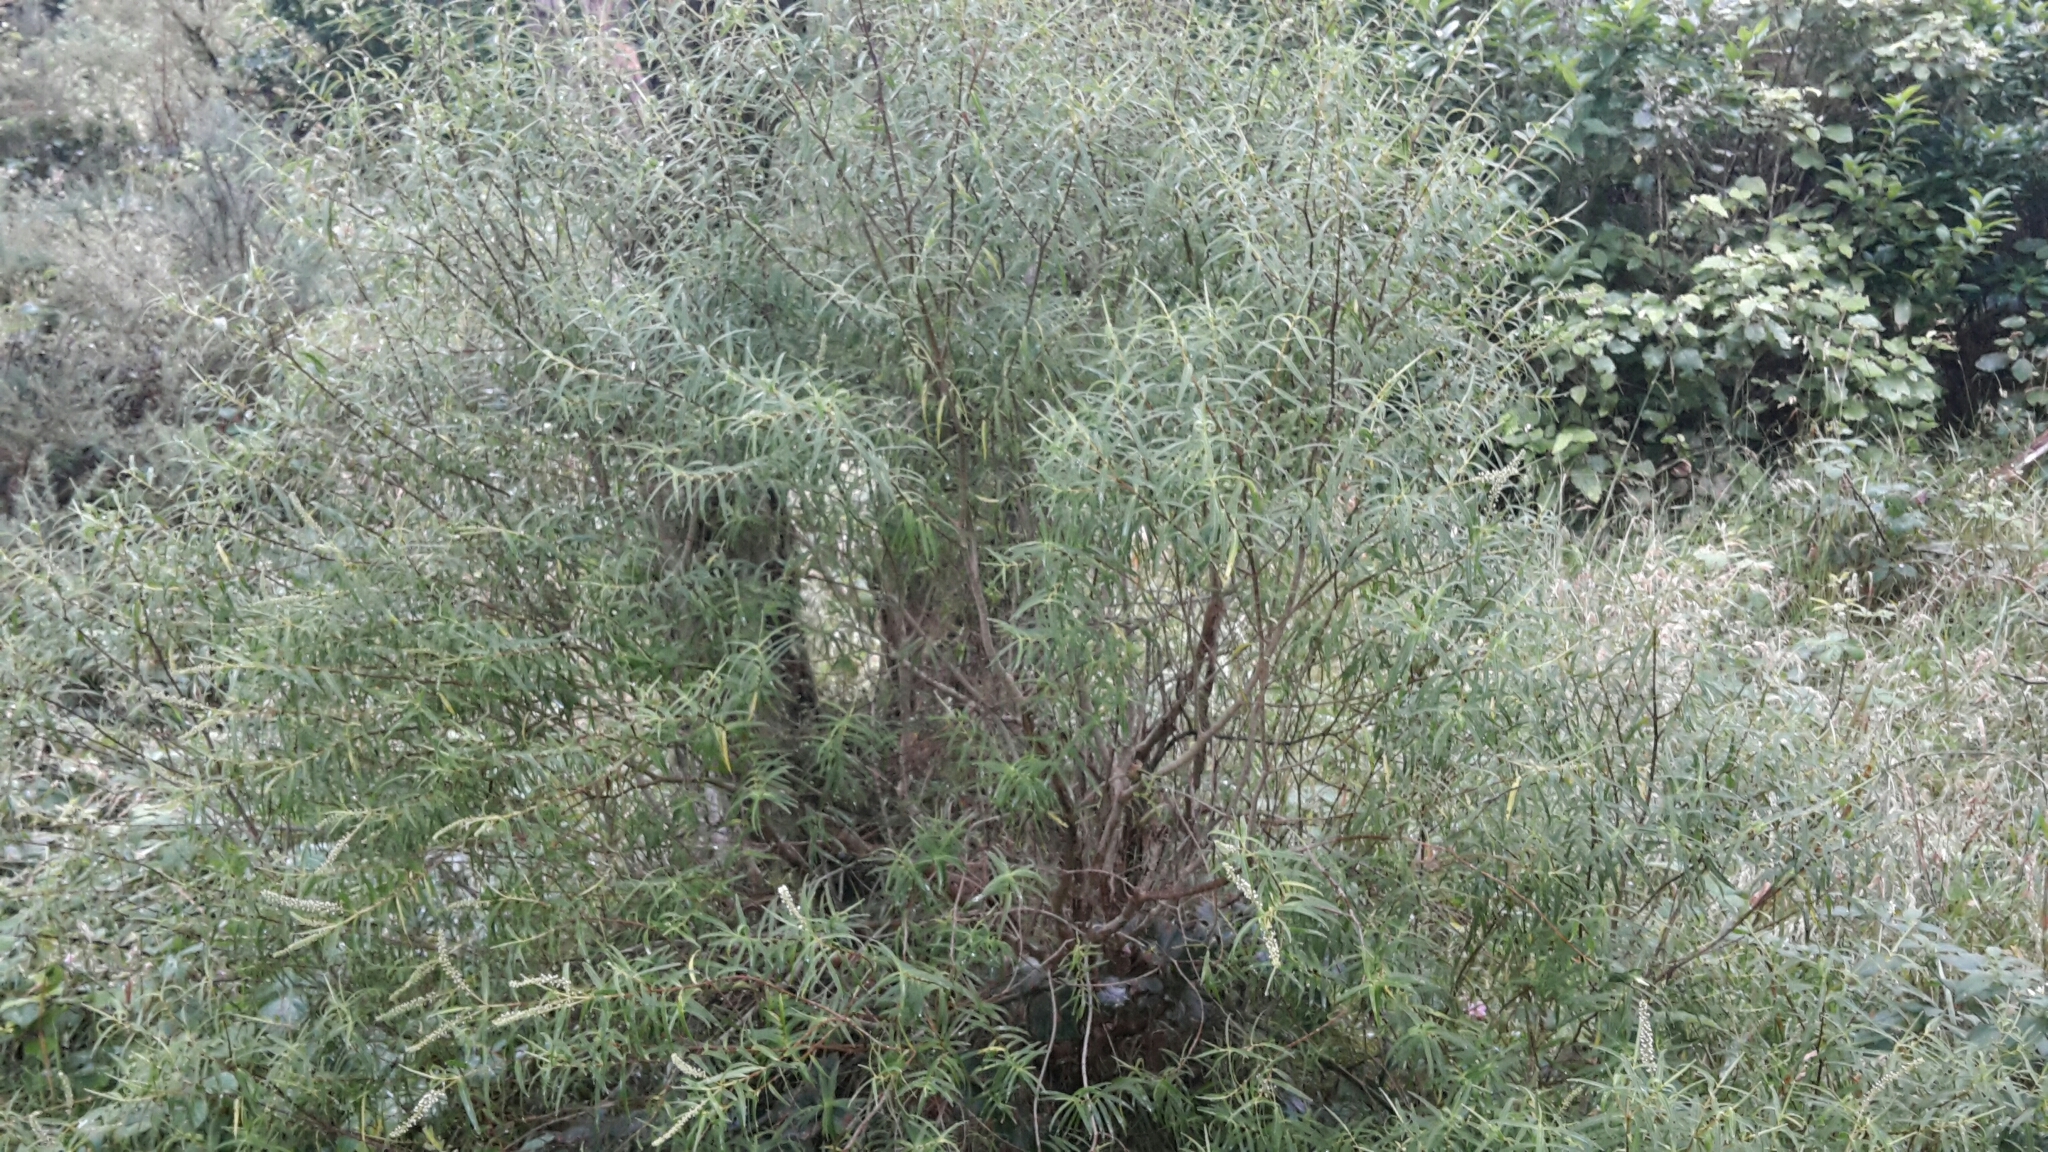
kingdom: Plantae
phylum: Tracheophyta
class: Magnoliopsida
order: Lamiales
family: Plantaginaceae
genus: Veronica
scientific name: Veronica parviflora
